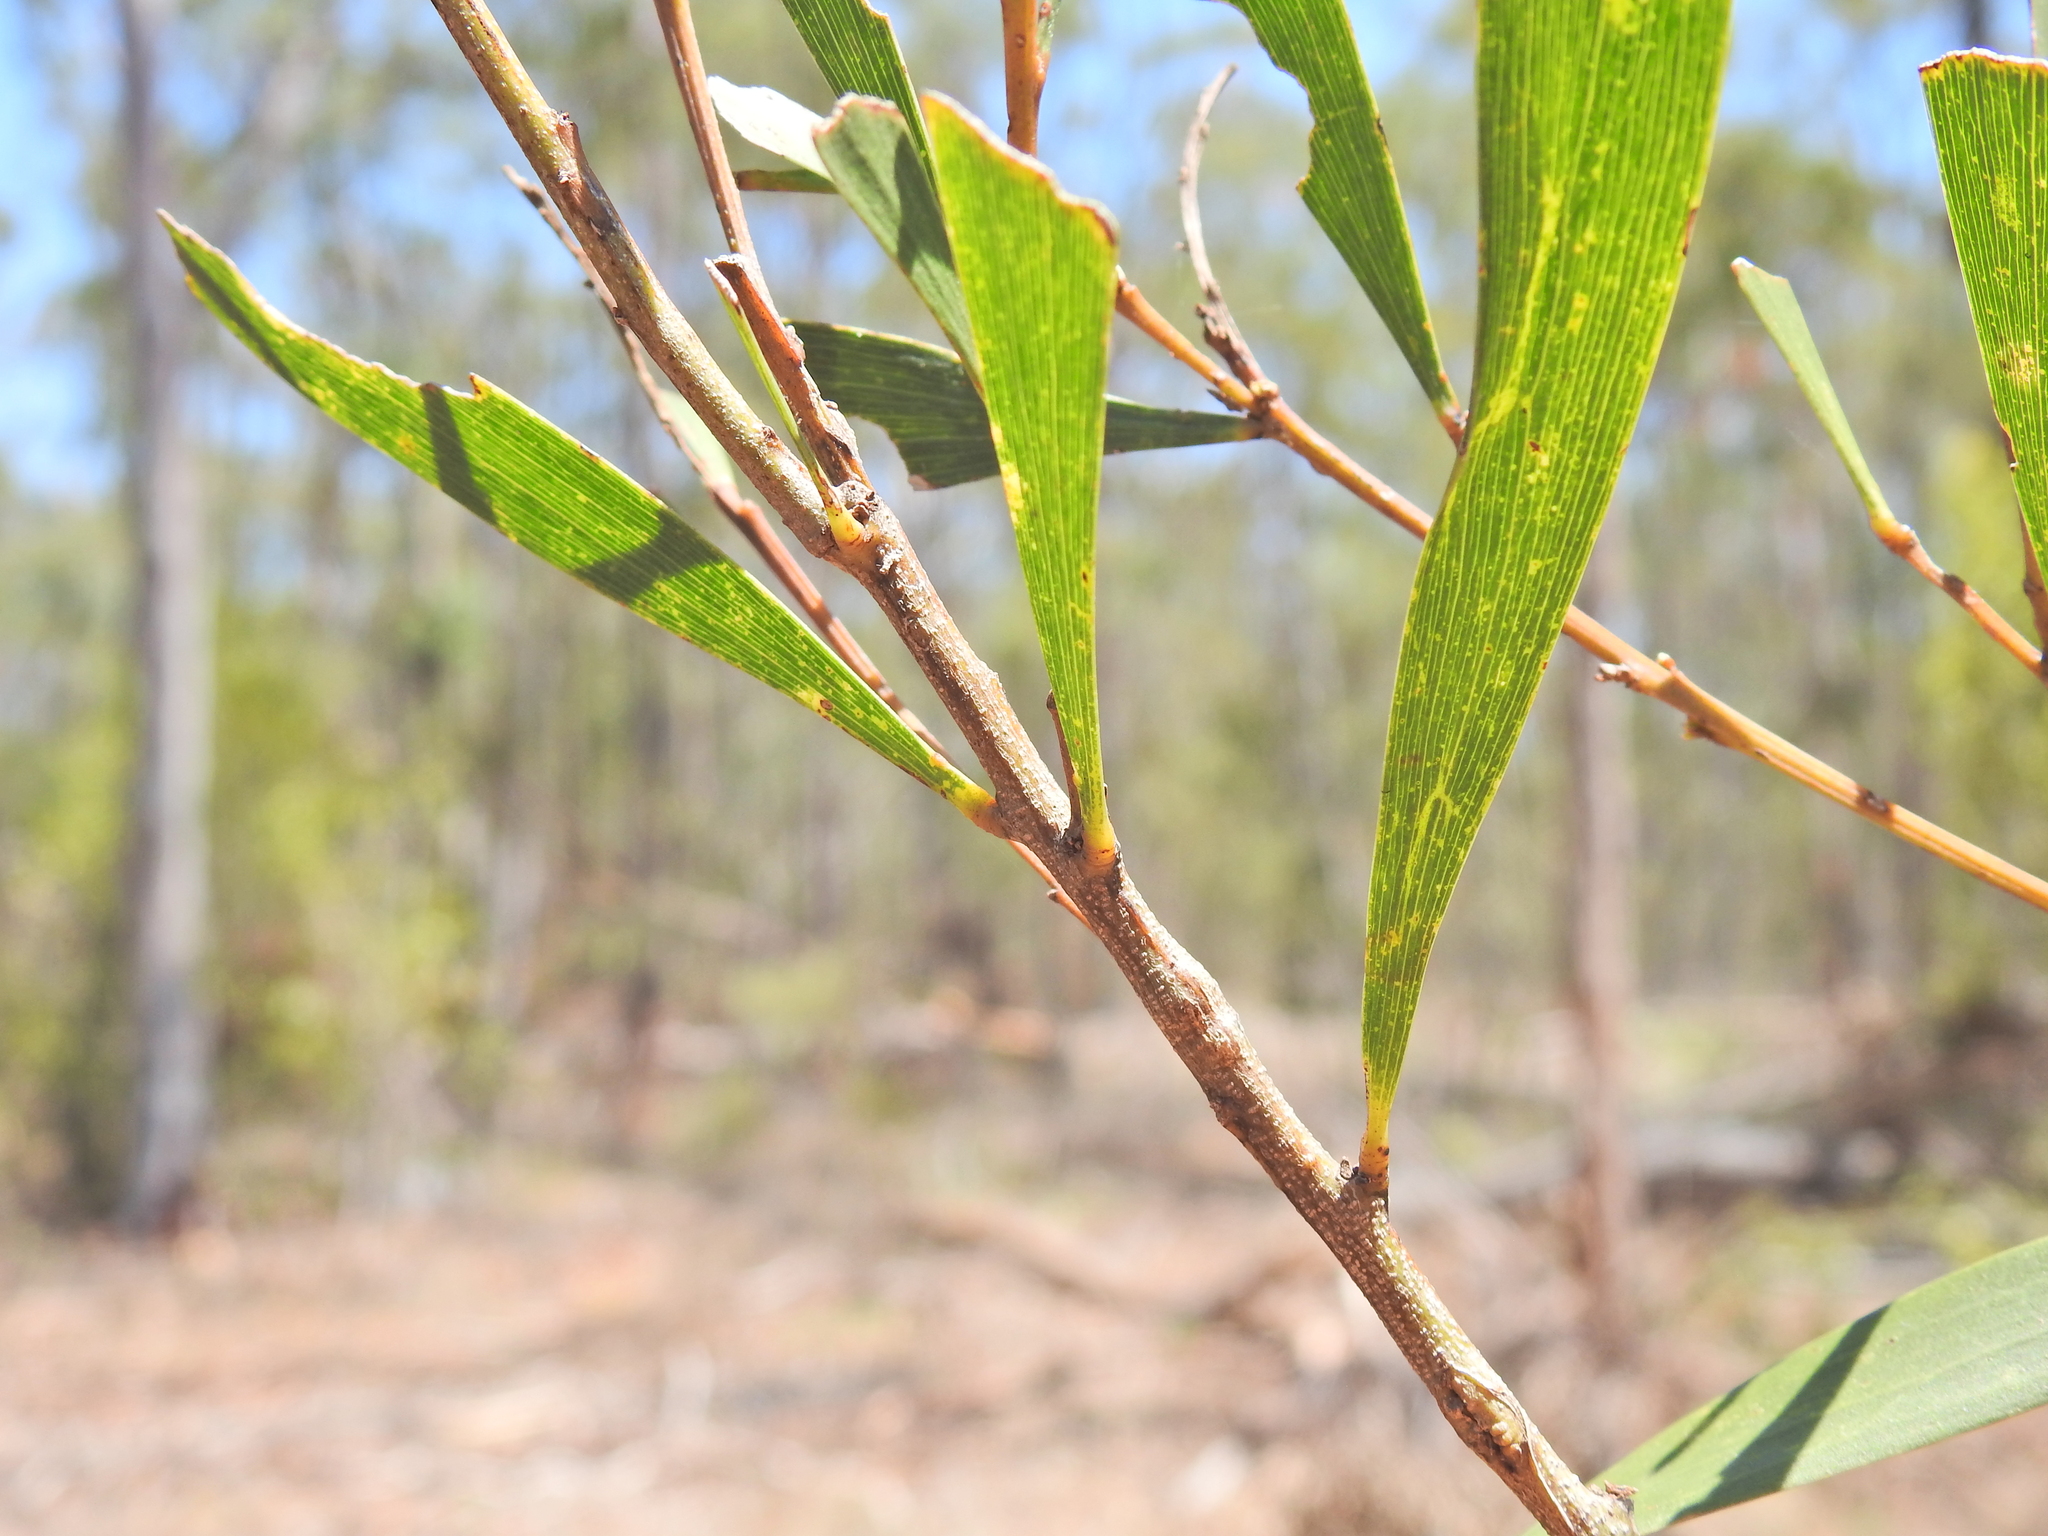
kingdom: Plantae
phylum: Tracheophyta
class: Magnoliopsida
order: Fabales
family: Fabaceae
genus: Acacia
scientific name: Acacia maidenii
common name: Maiden's wattle
